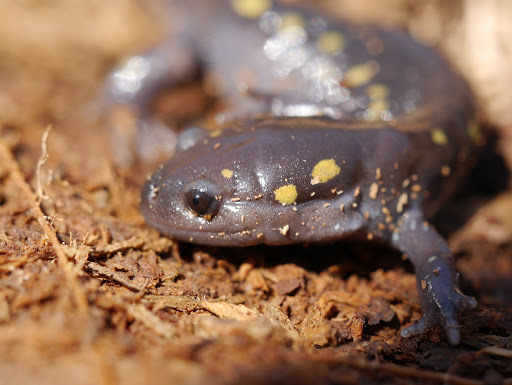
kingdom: Animalia
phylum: Chordata
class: Amphibia
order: Caudata
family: Ambystomatidae
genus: Ambystoma
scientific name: Ambystoma maculatum
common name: Spotted salamander
